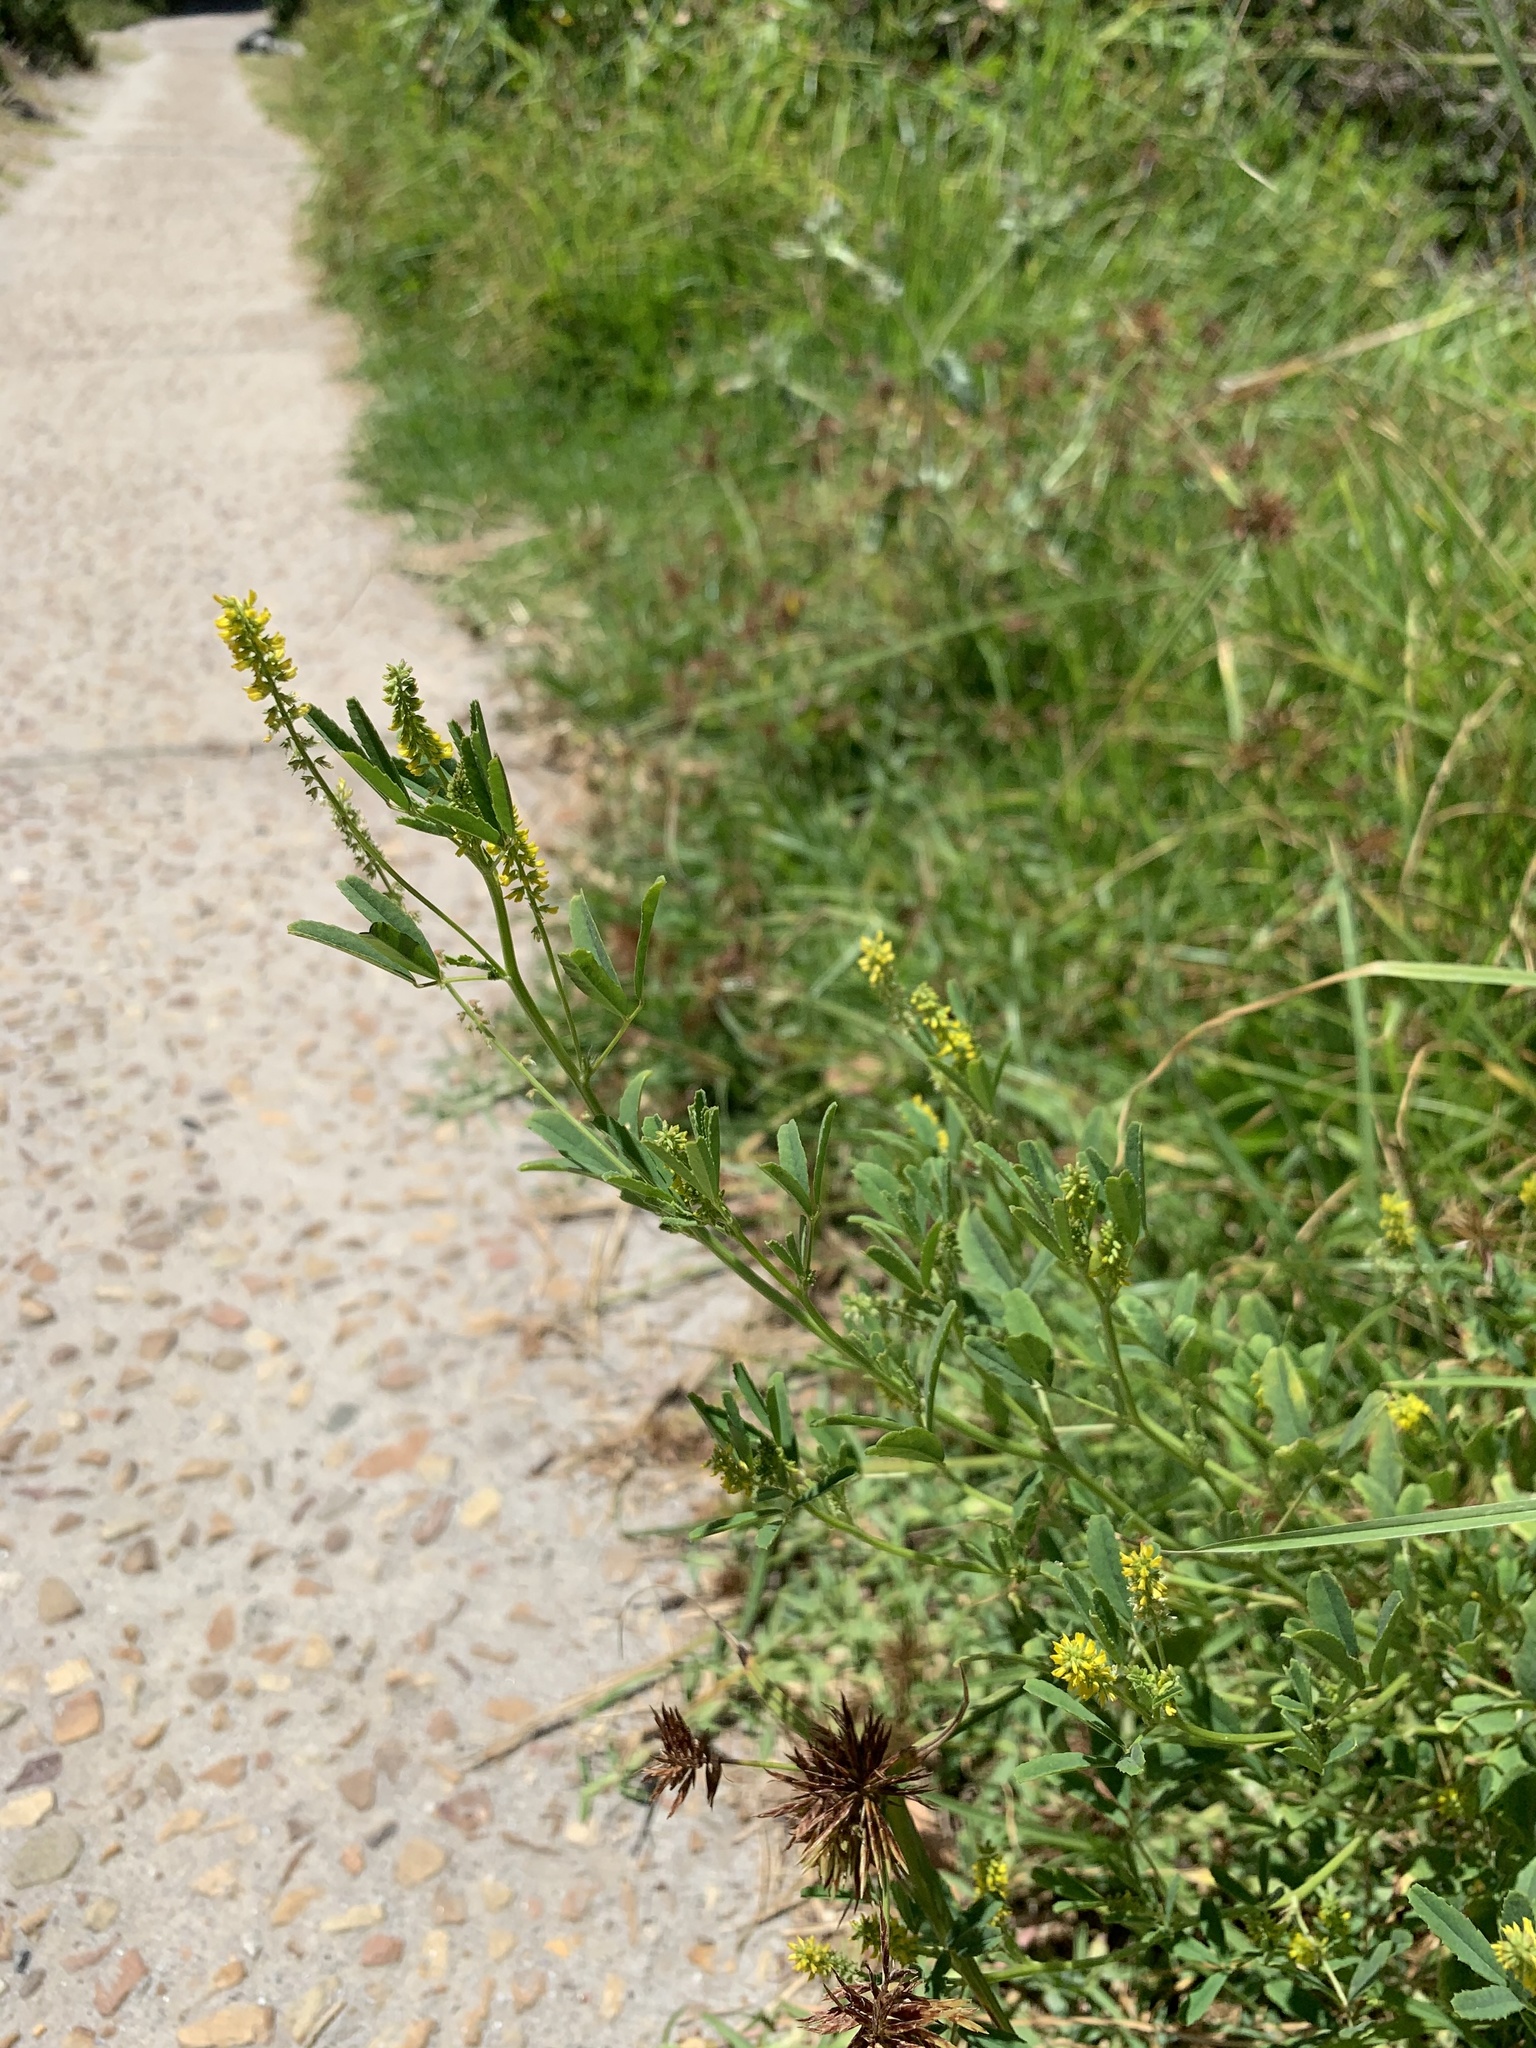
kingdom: Plantae
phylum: Tracheophyta
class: Magnoliopsida
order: Fabales
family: Fabaceae
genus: Melilotus
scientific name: Melilotus indicus
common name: Small melilot
